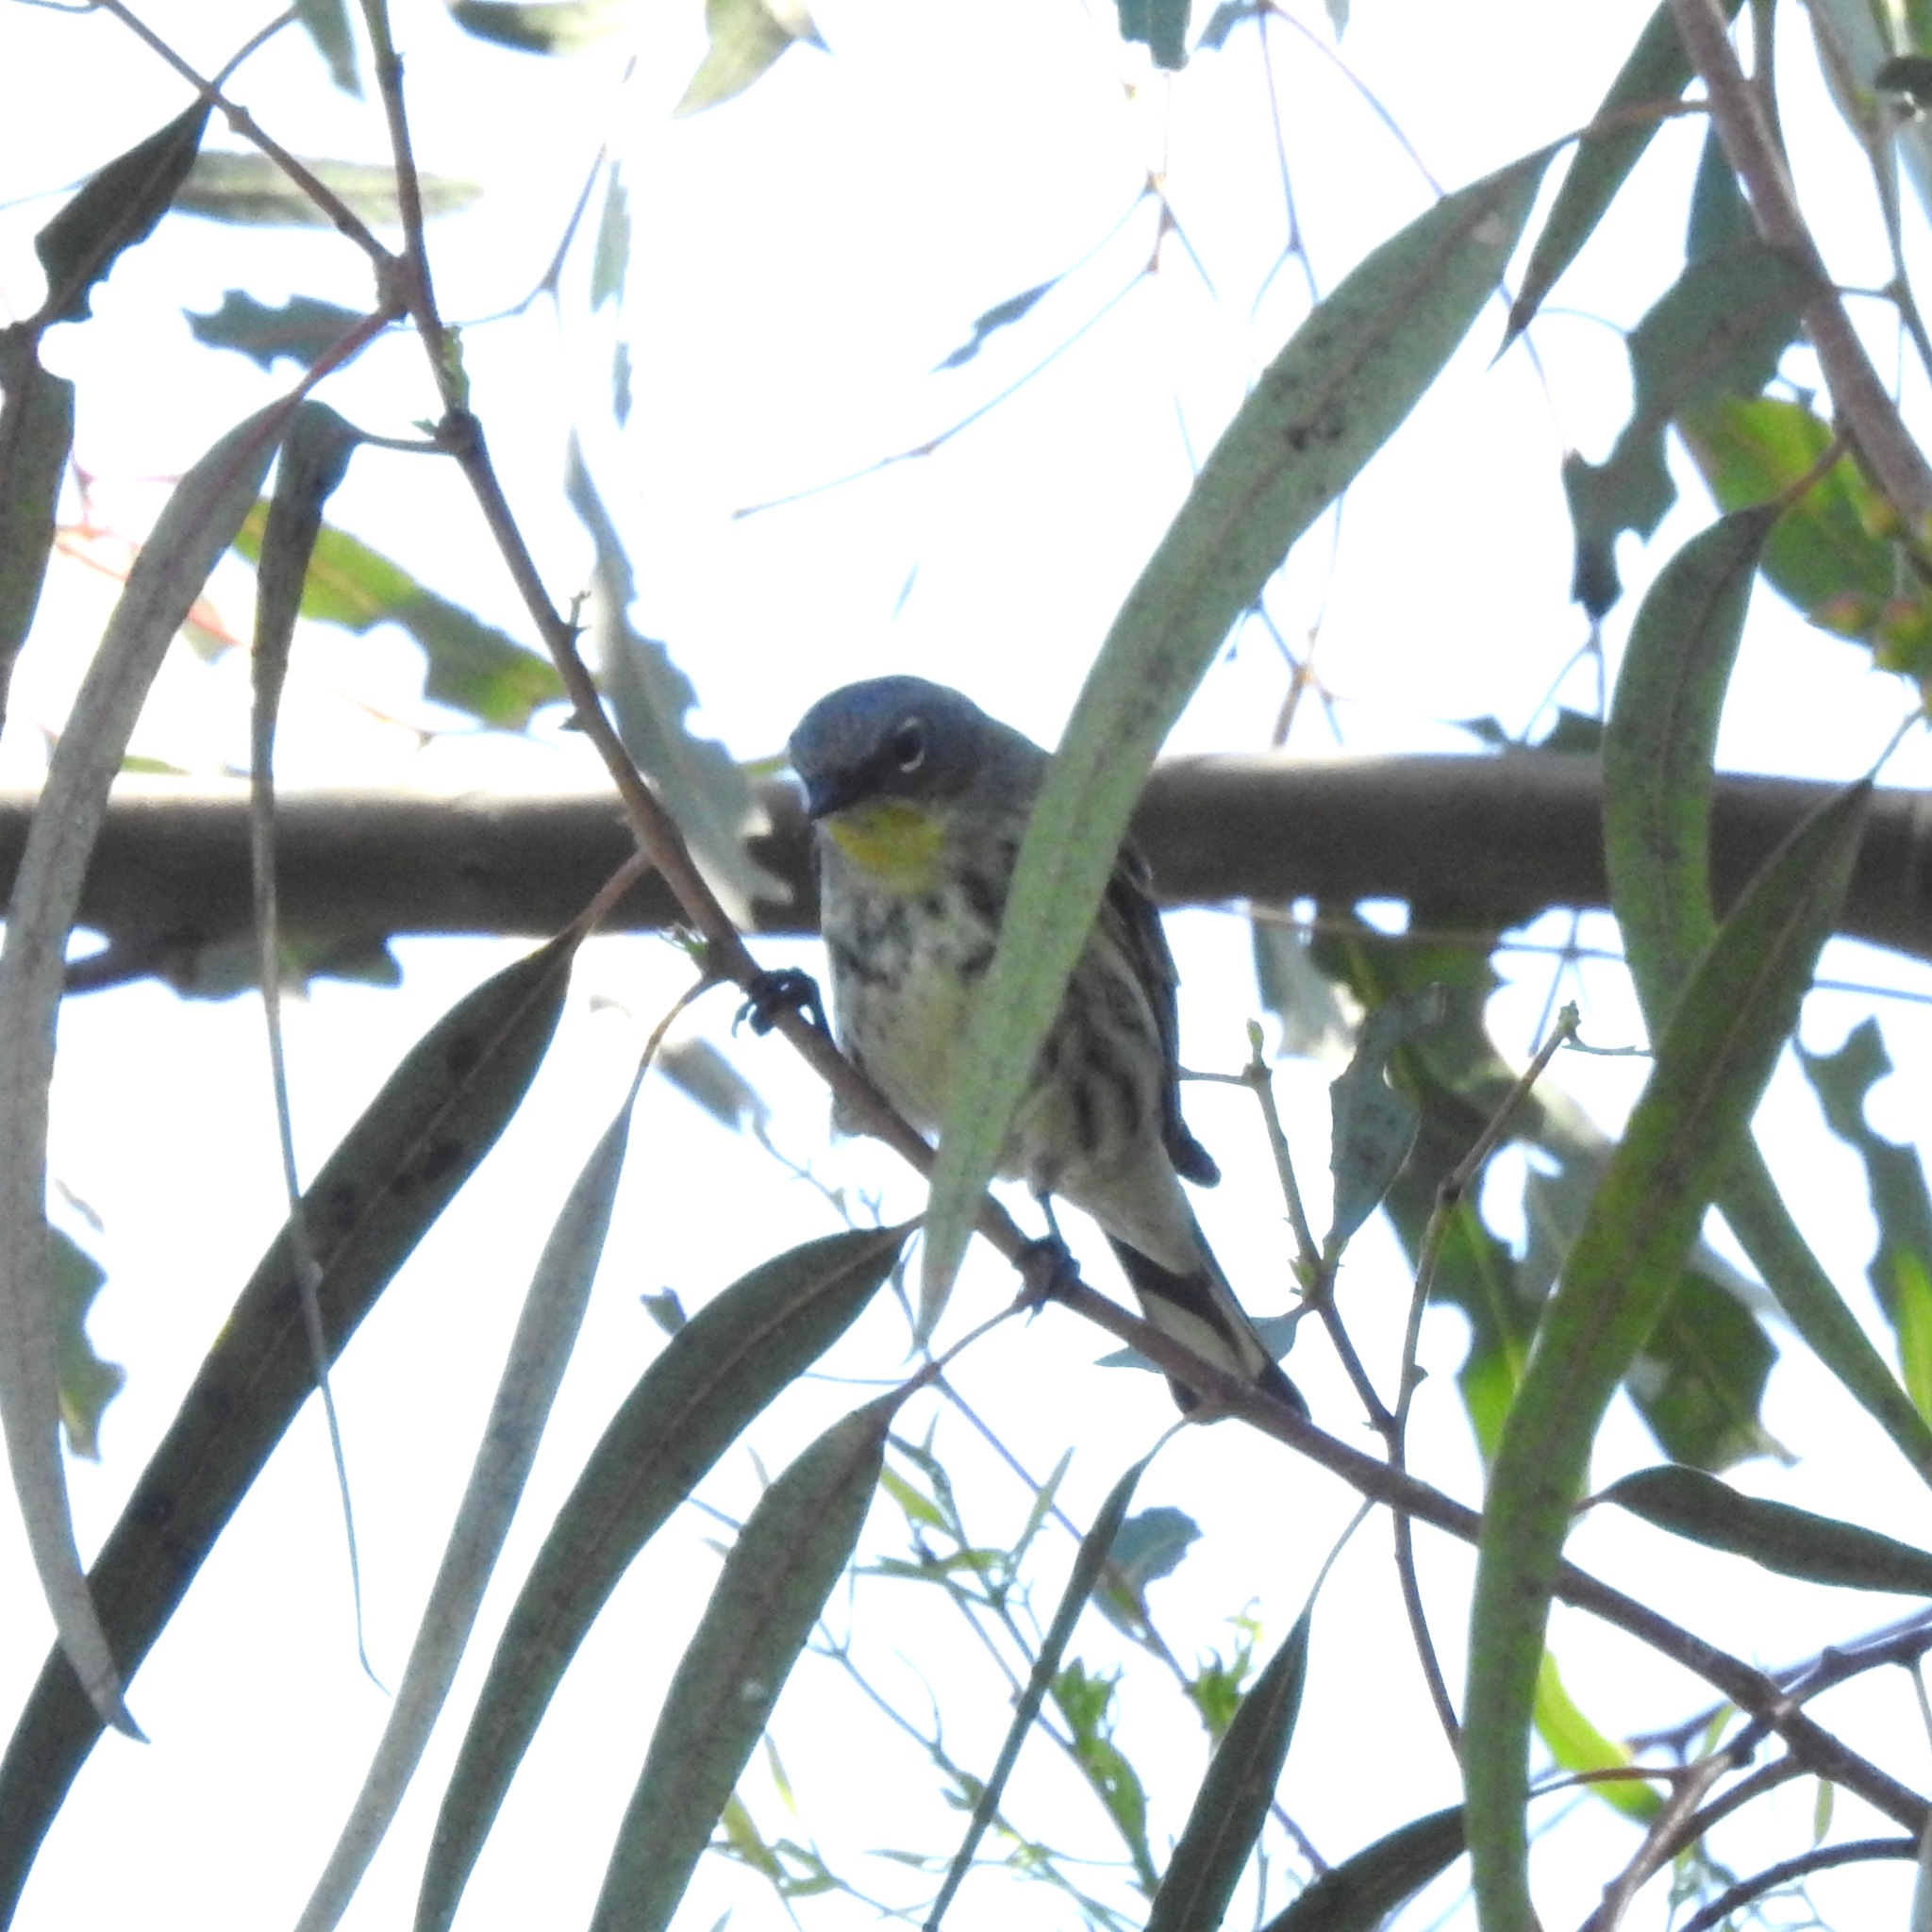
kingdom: Animalia
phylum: Chordata
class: Aves
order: Passeriformes
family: Parulidae
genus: Setophaga
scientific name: Setophaga coronata
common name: Myrtle warbler
